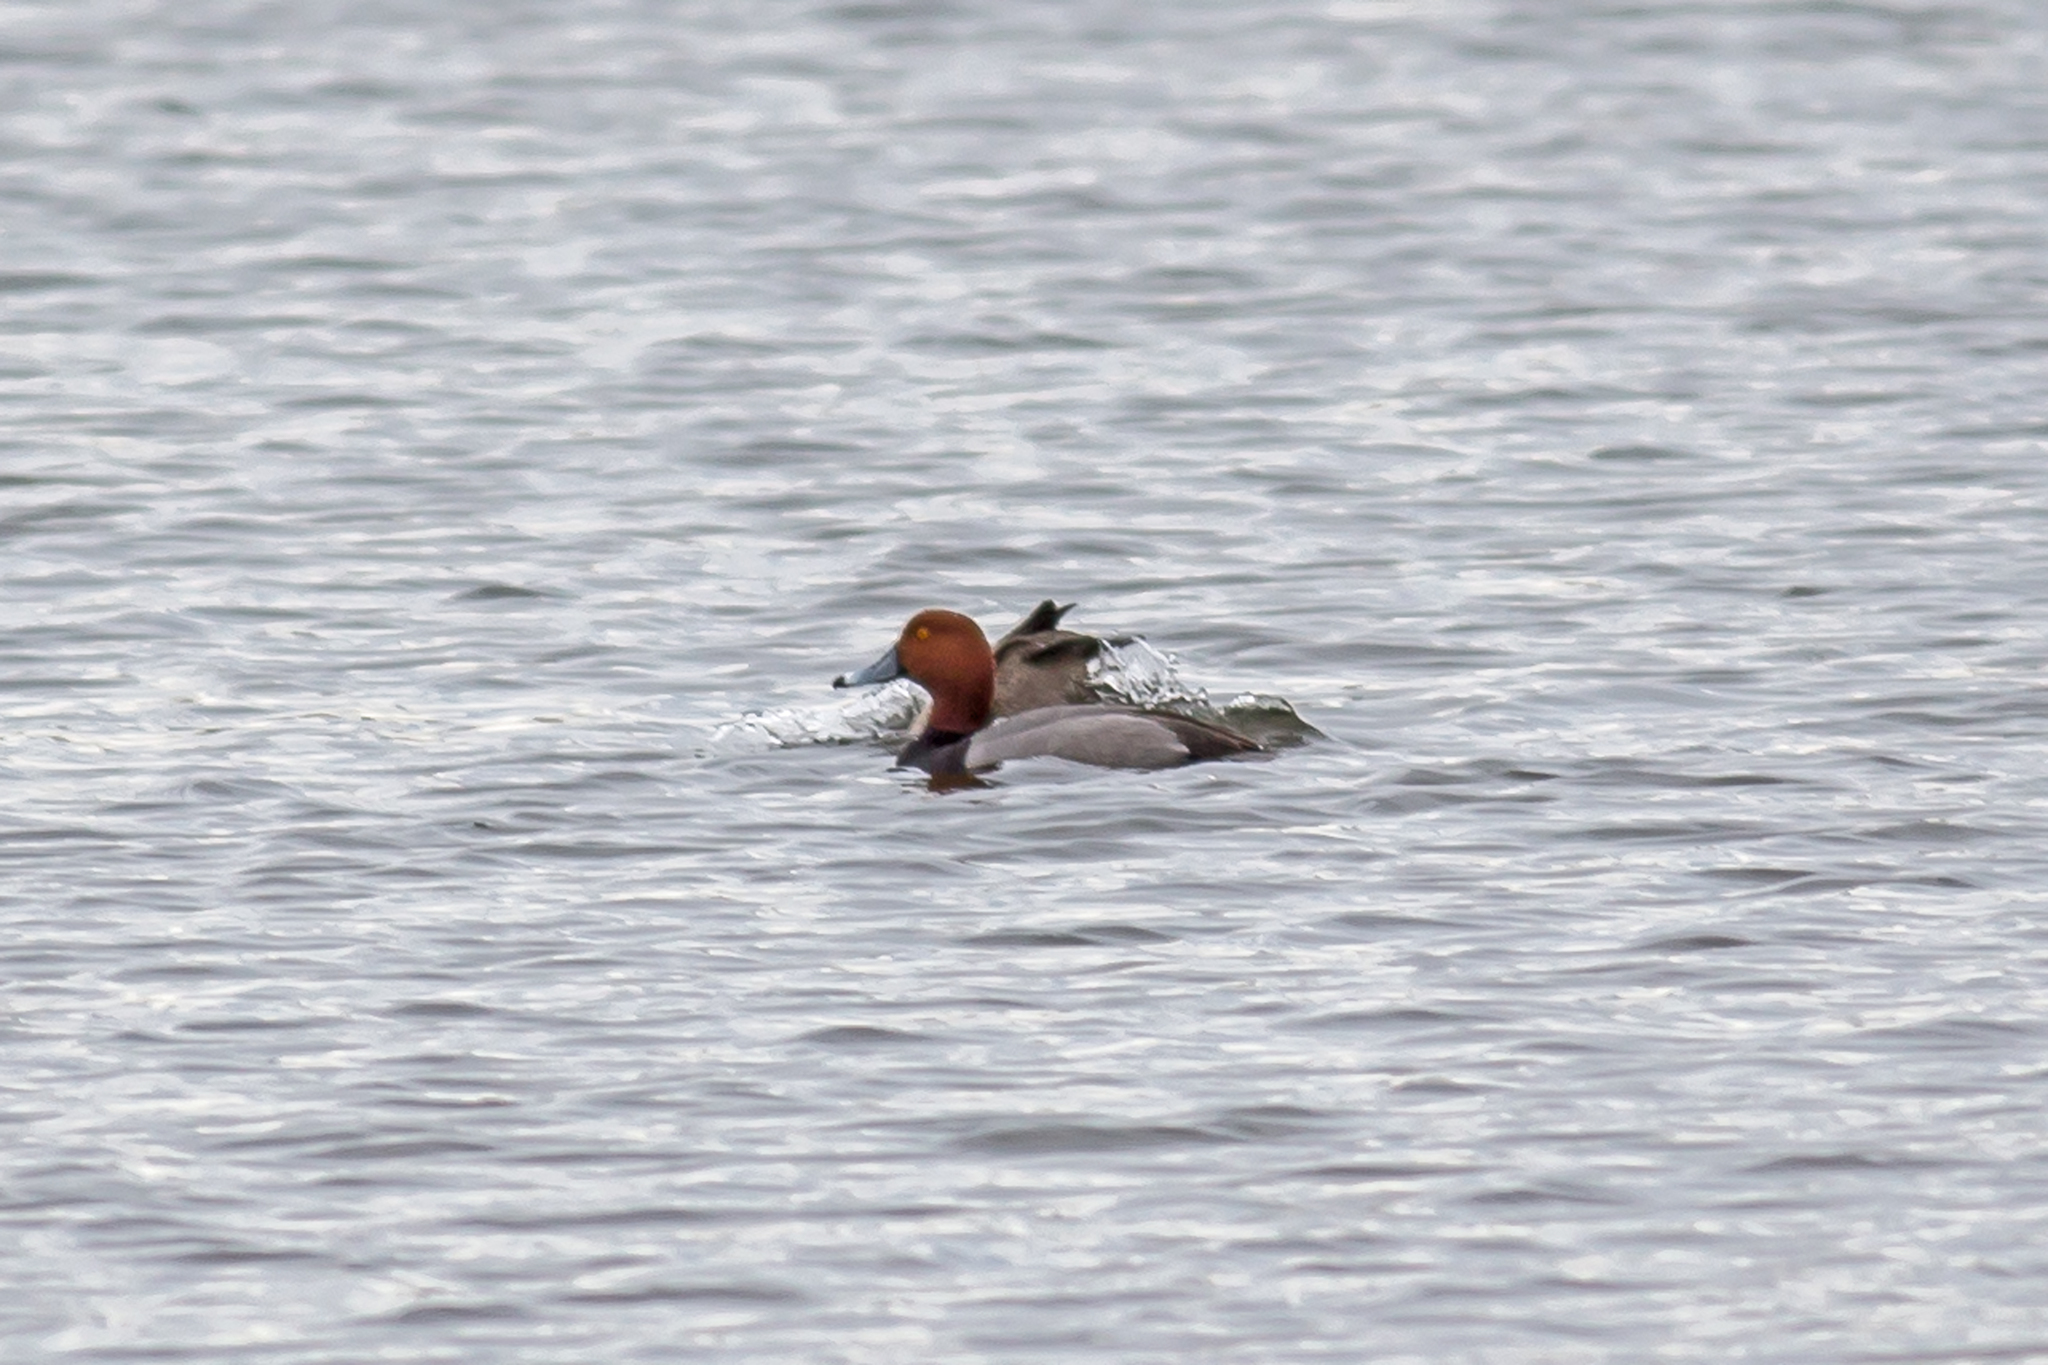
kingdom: Animalia
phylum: Chordata
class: Aves
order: Anseriformes
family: Anatidae
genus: Aythya
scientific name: Aythya americana
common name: Redhead
